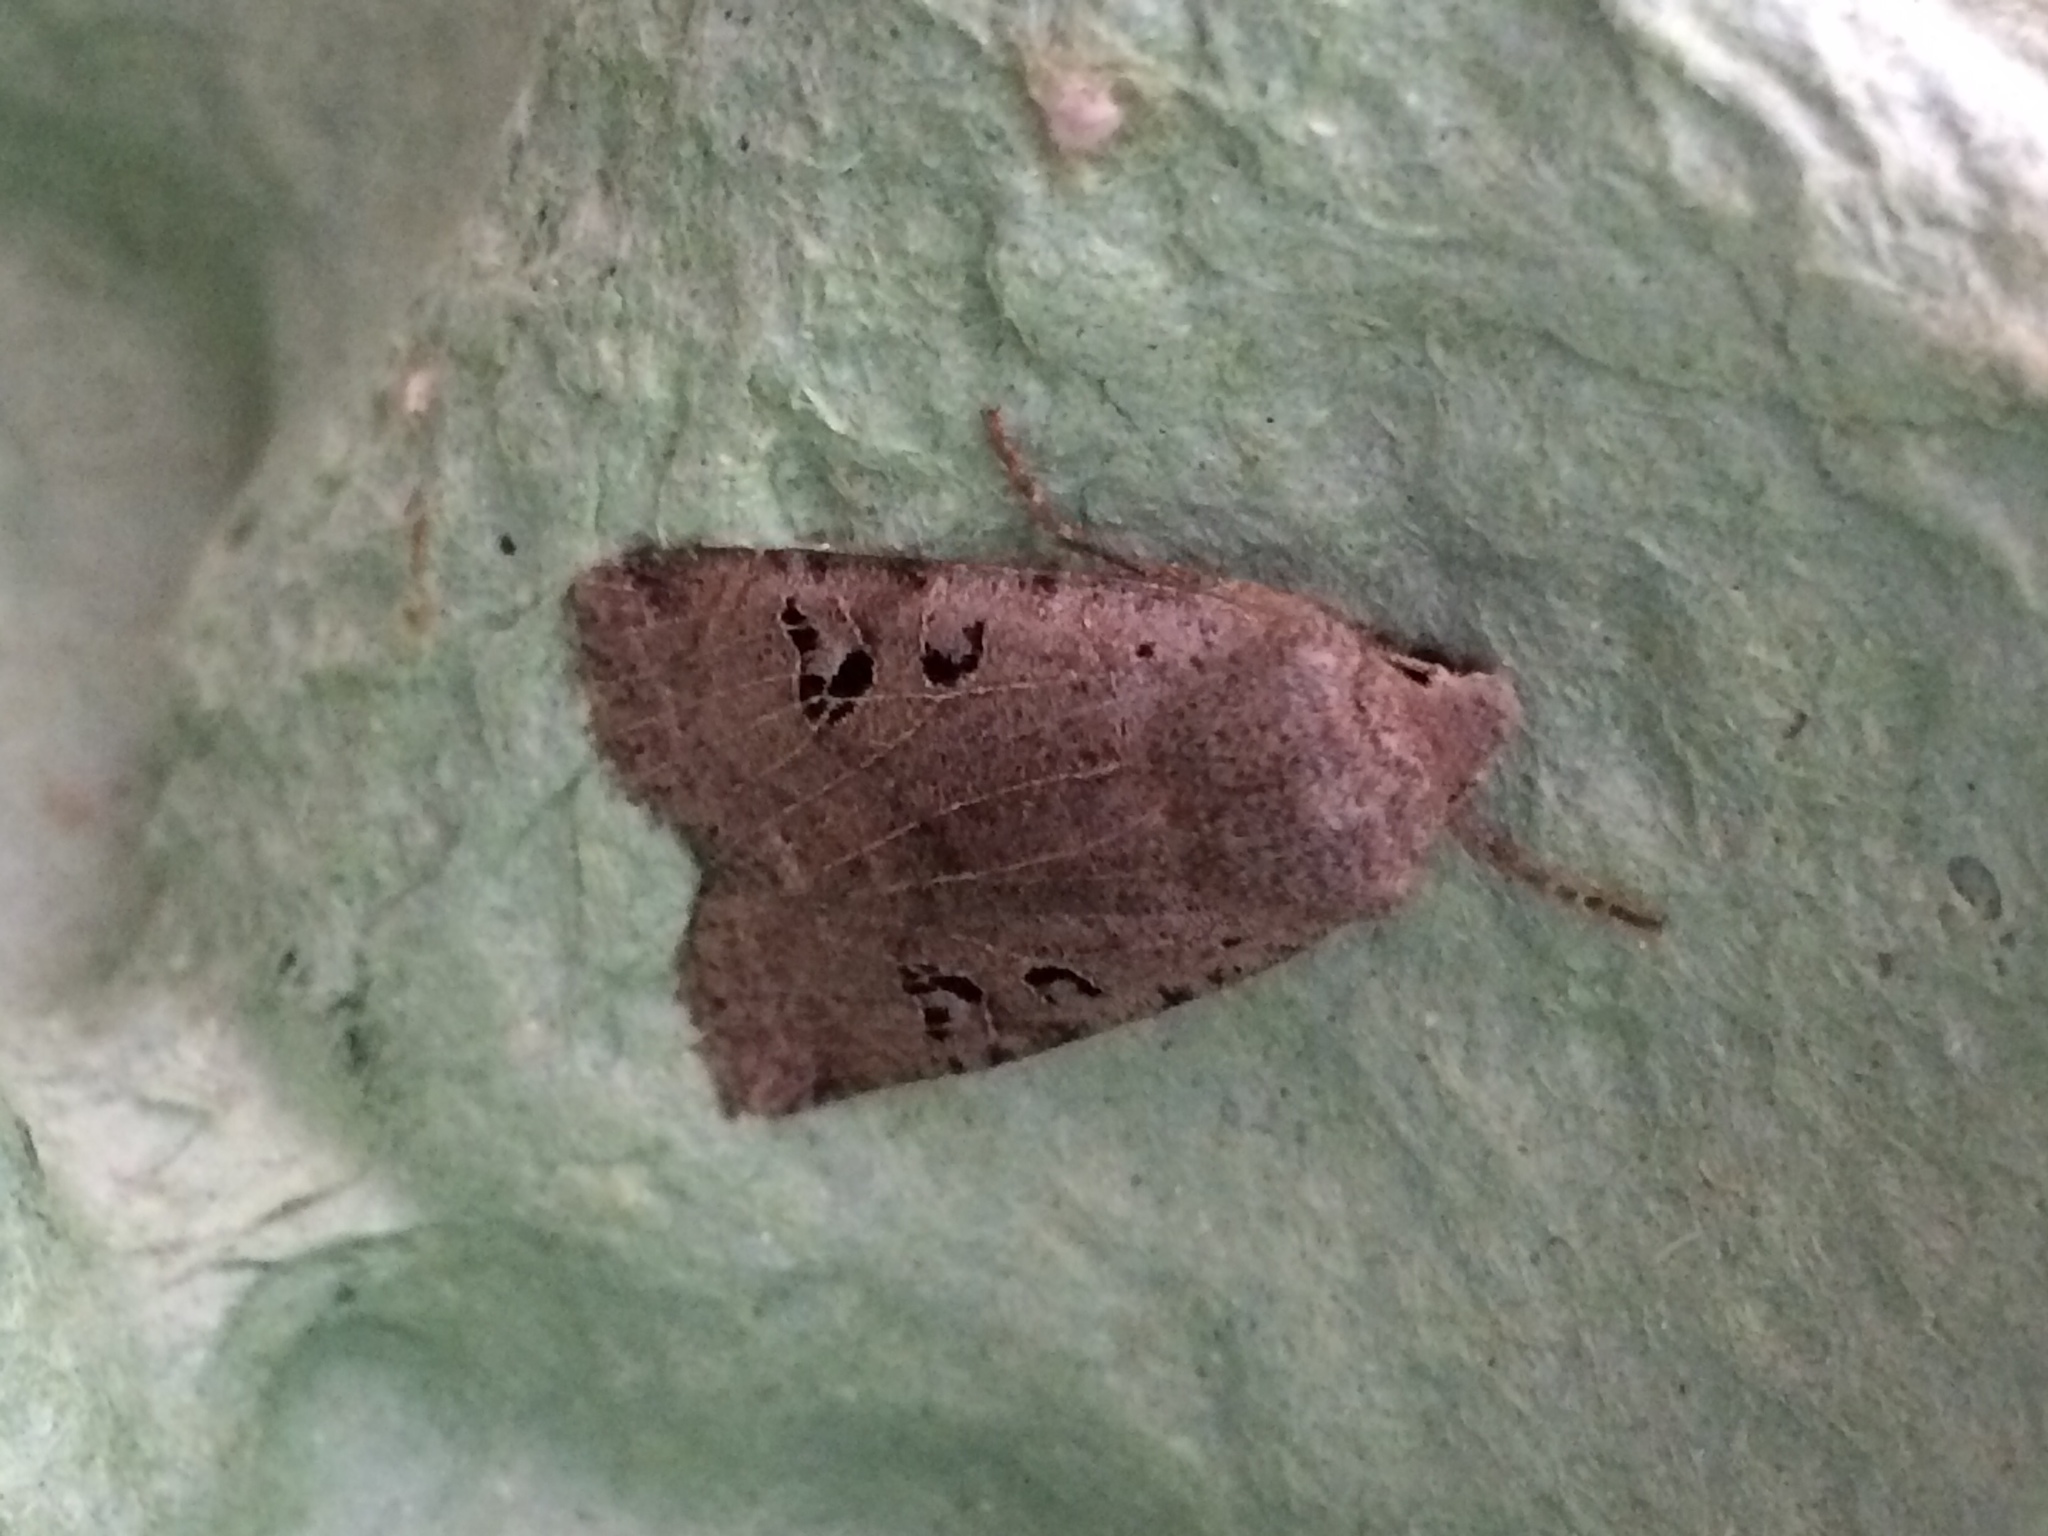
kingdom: Animalia
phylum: Arthropoda
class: Insecta
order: Lepidoptera
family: Noctuidae
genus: Conistra
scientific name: Conistra rubiginosa
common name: Black-spotted chestnut
